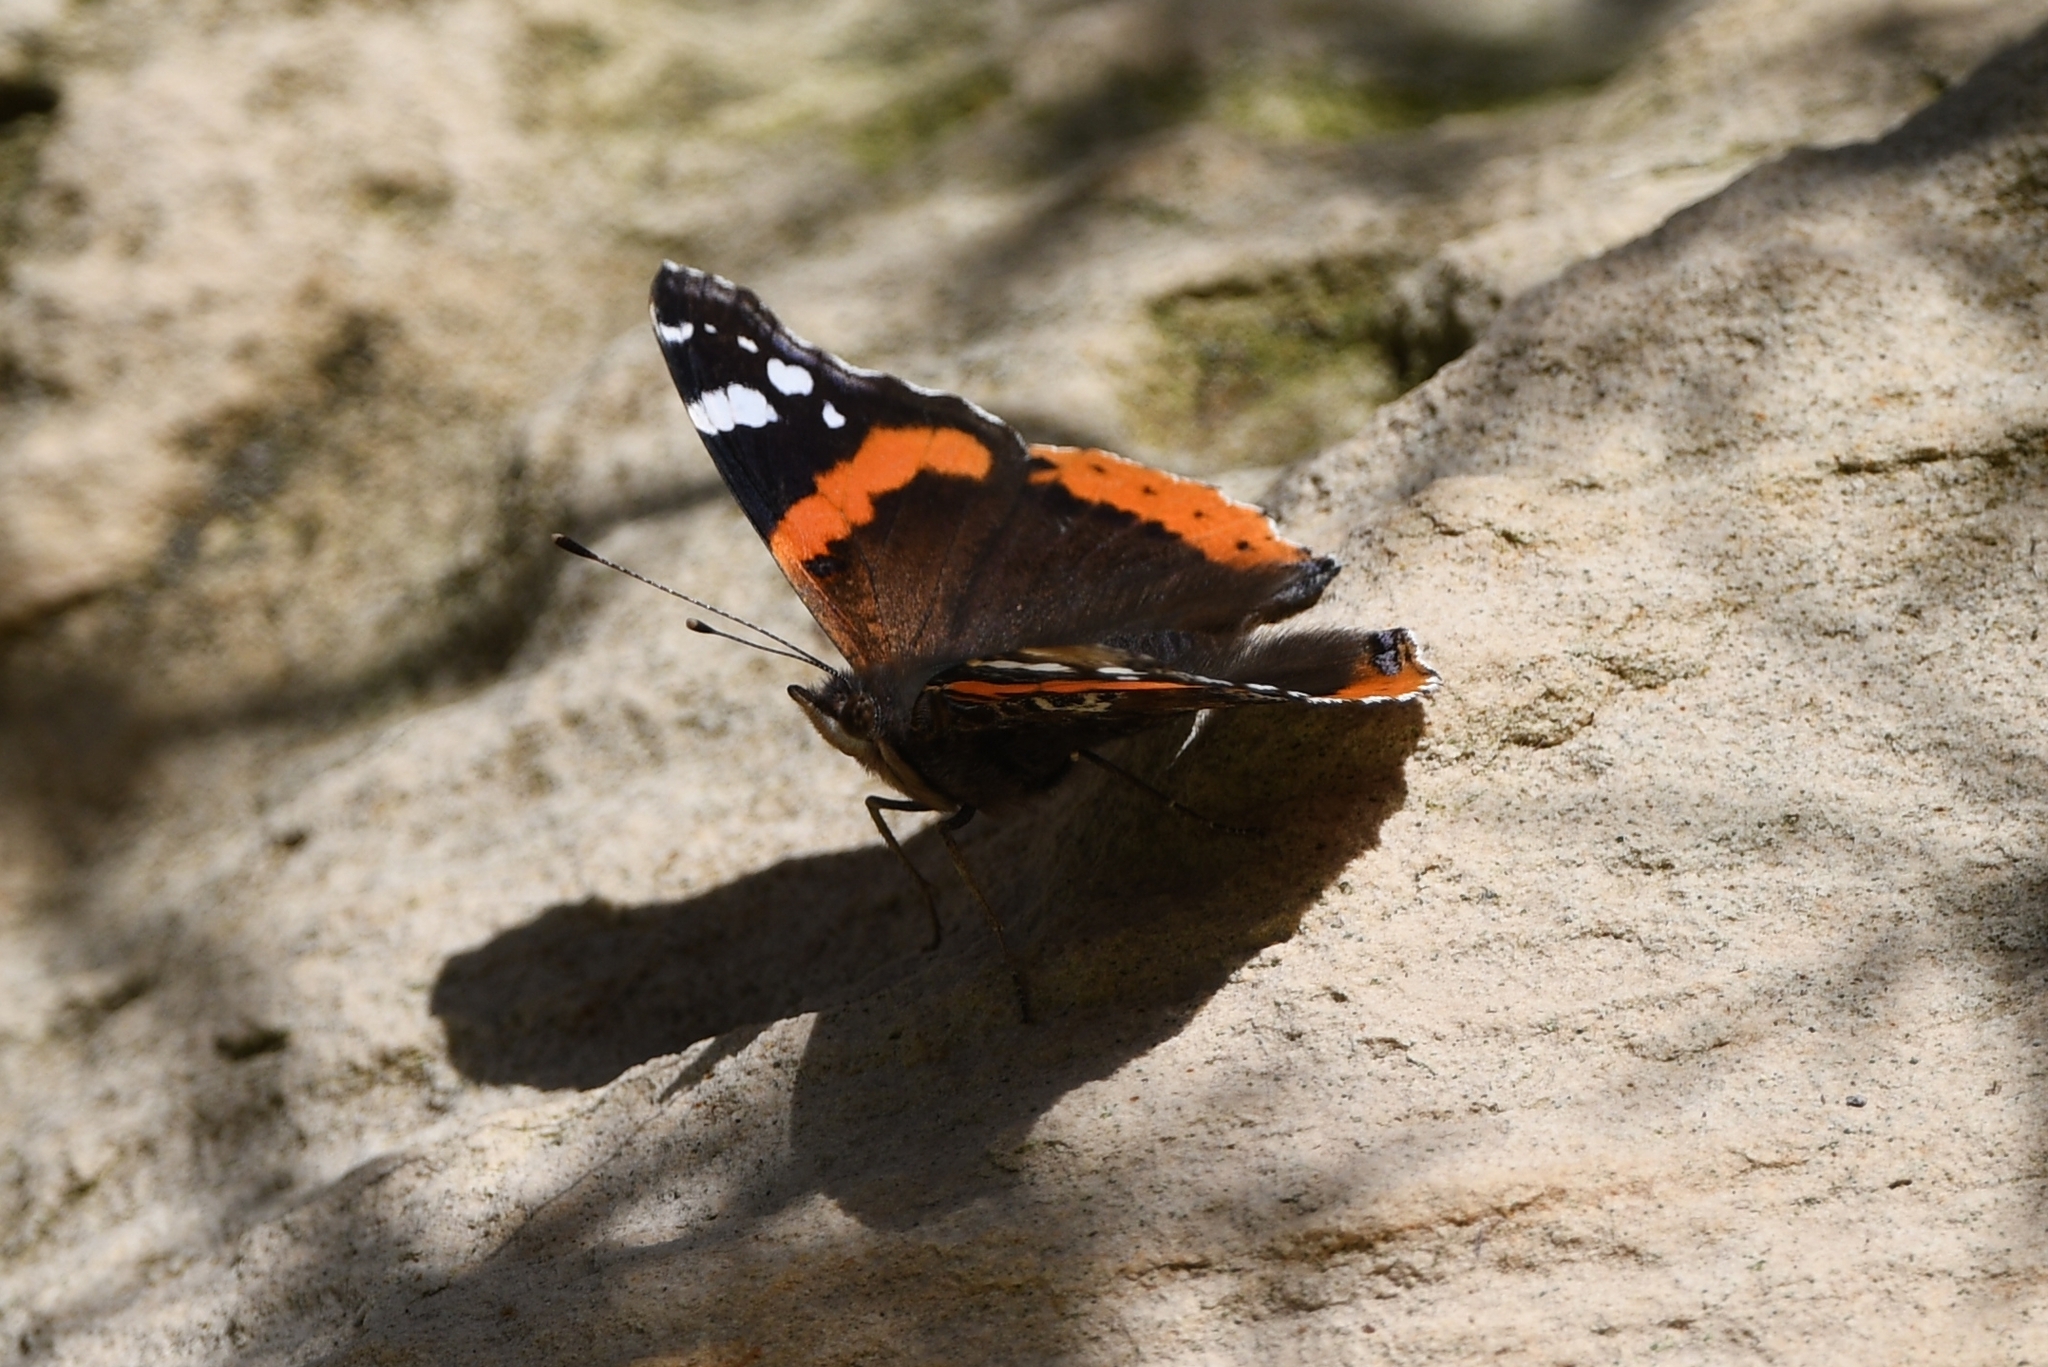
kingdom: Animalia
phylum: Arthropoda
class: Insecta
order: Lepidoptera
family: Nymphalidae
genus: Vanessa
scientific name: Vanessa atalanta
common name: Red admiral
